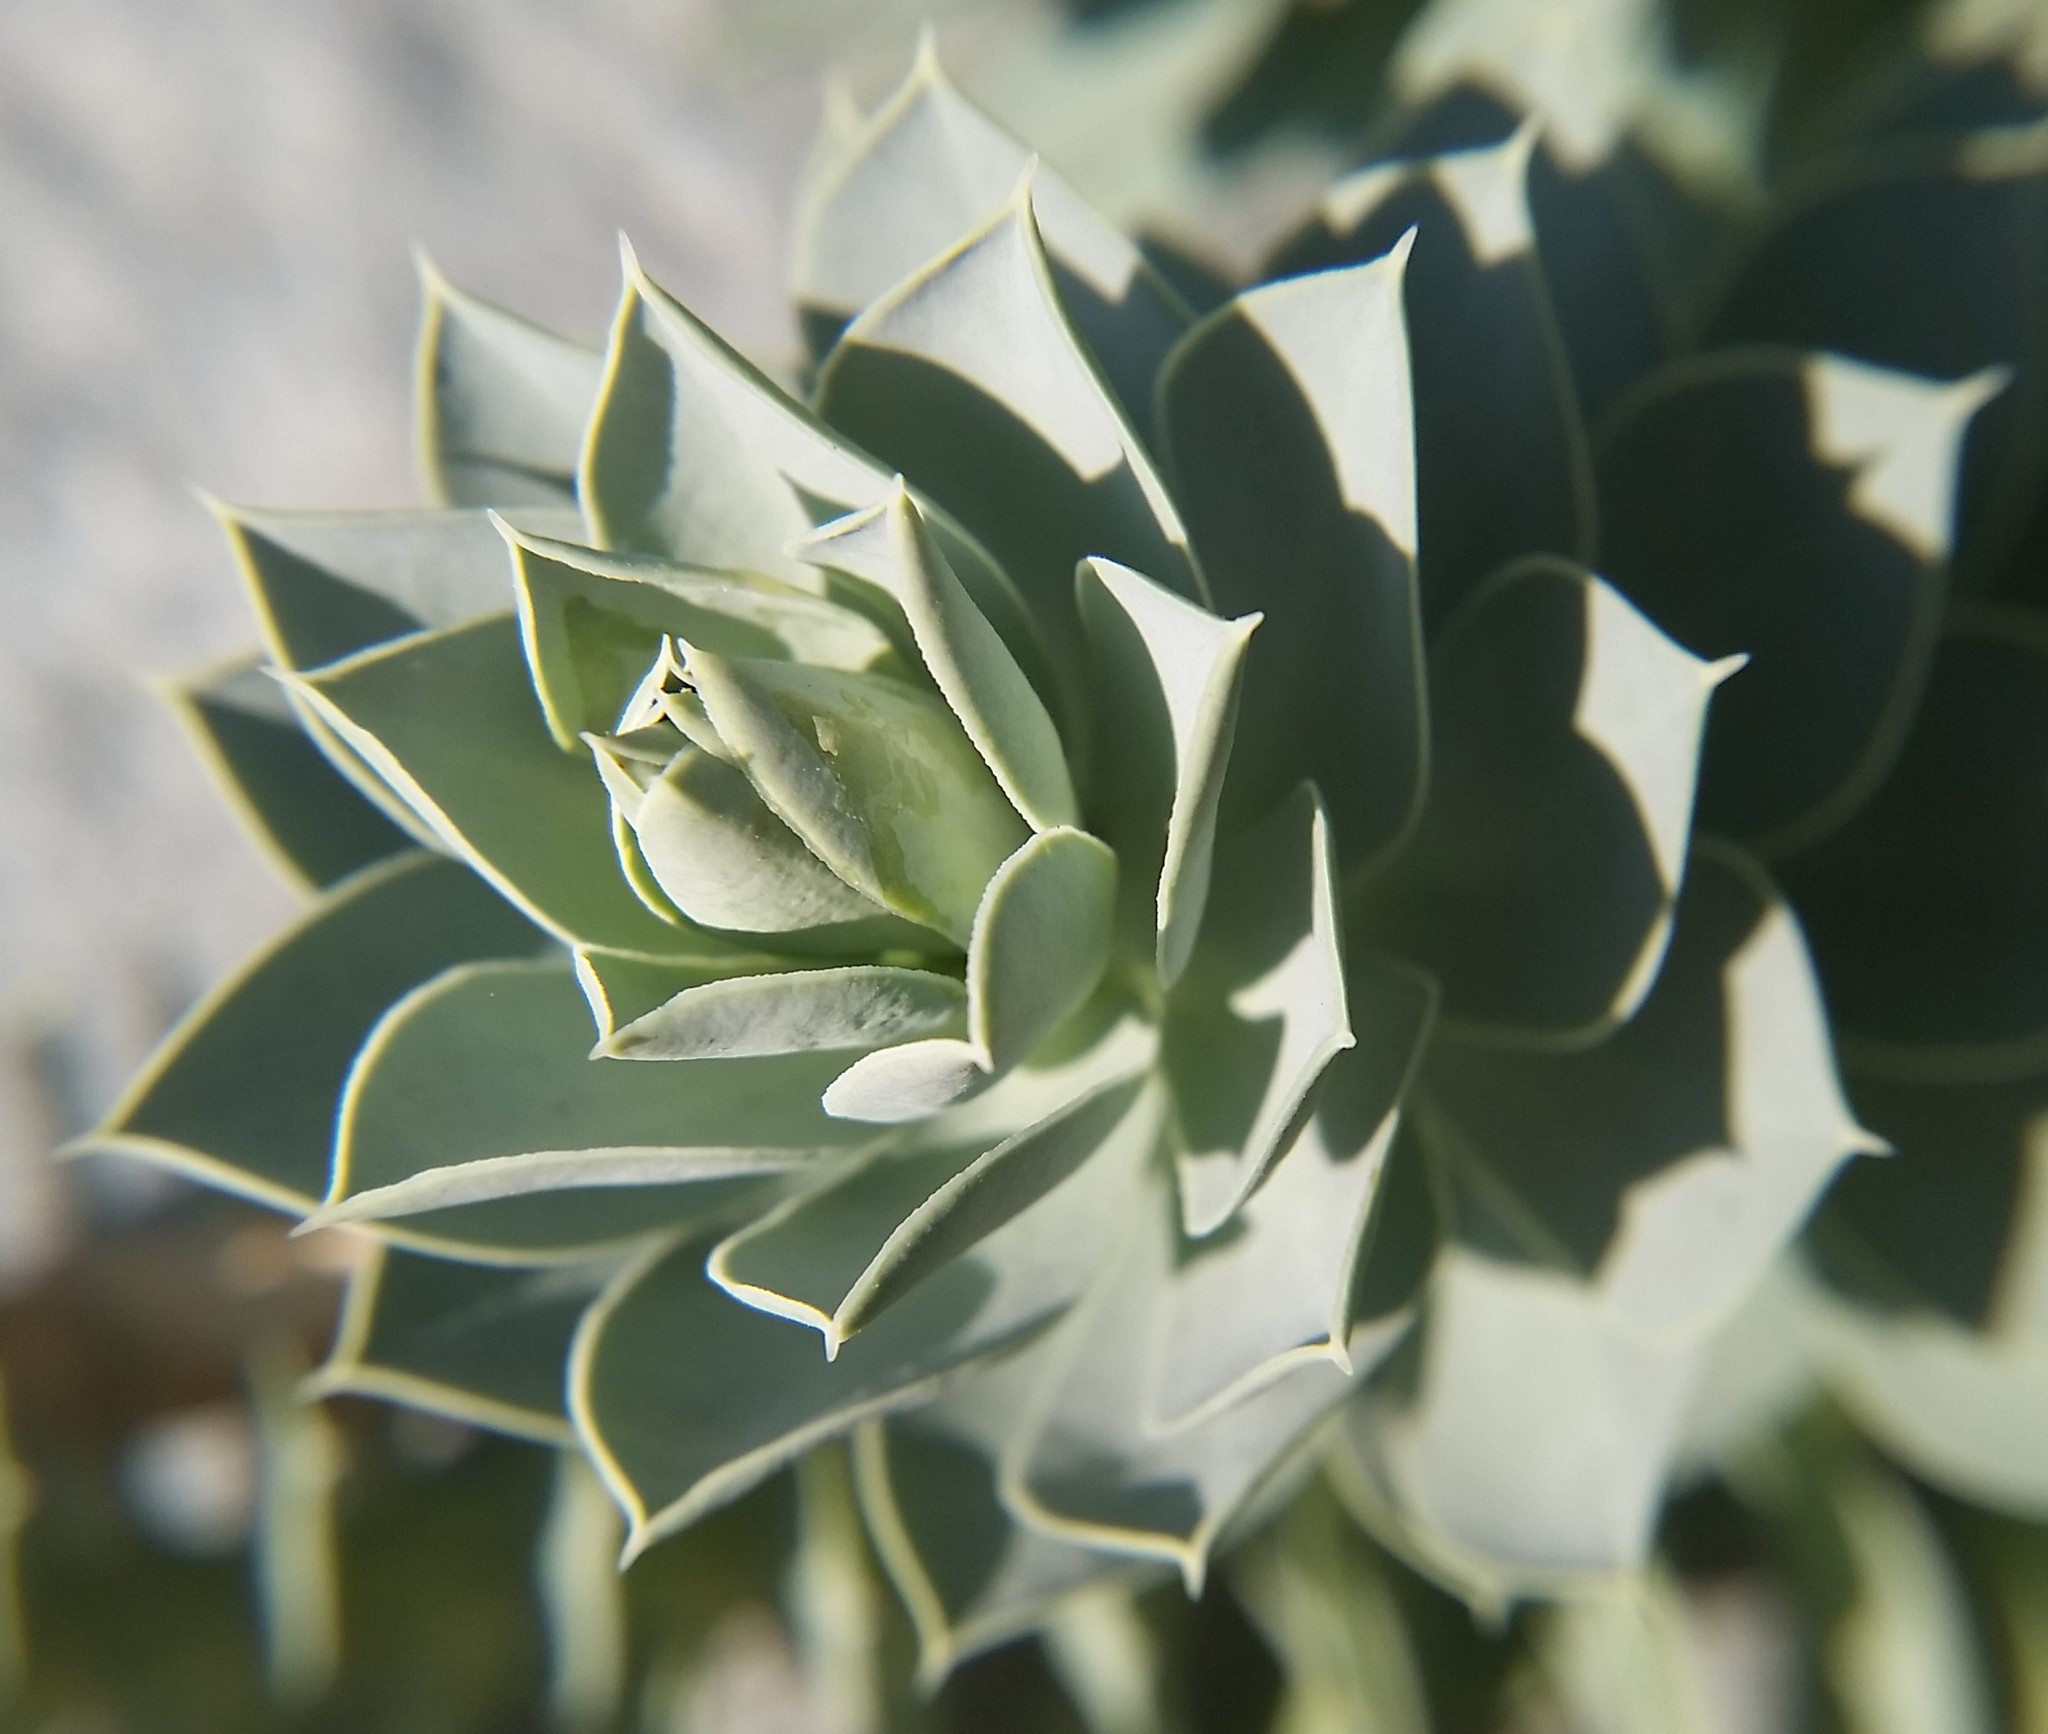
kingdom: Plantae
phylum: Tracheophyta
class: Magnoliopsida
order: Malpighiales
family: Euphorbiaceae
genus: Euphorbia
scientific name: Euphorbia myrsinites
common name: Myrtle spurge
